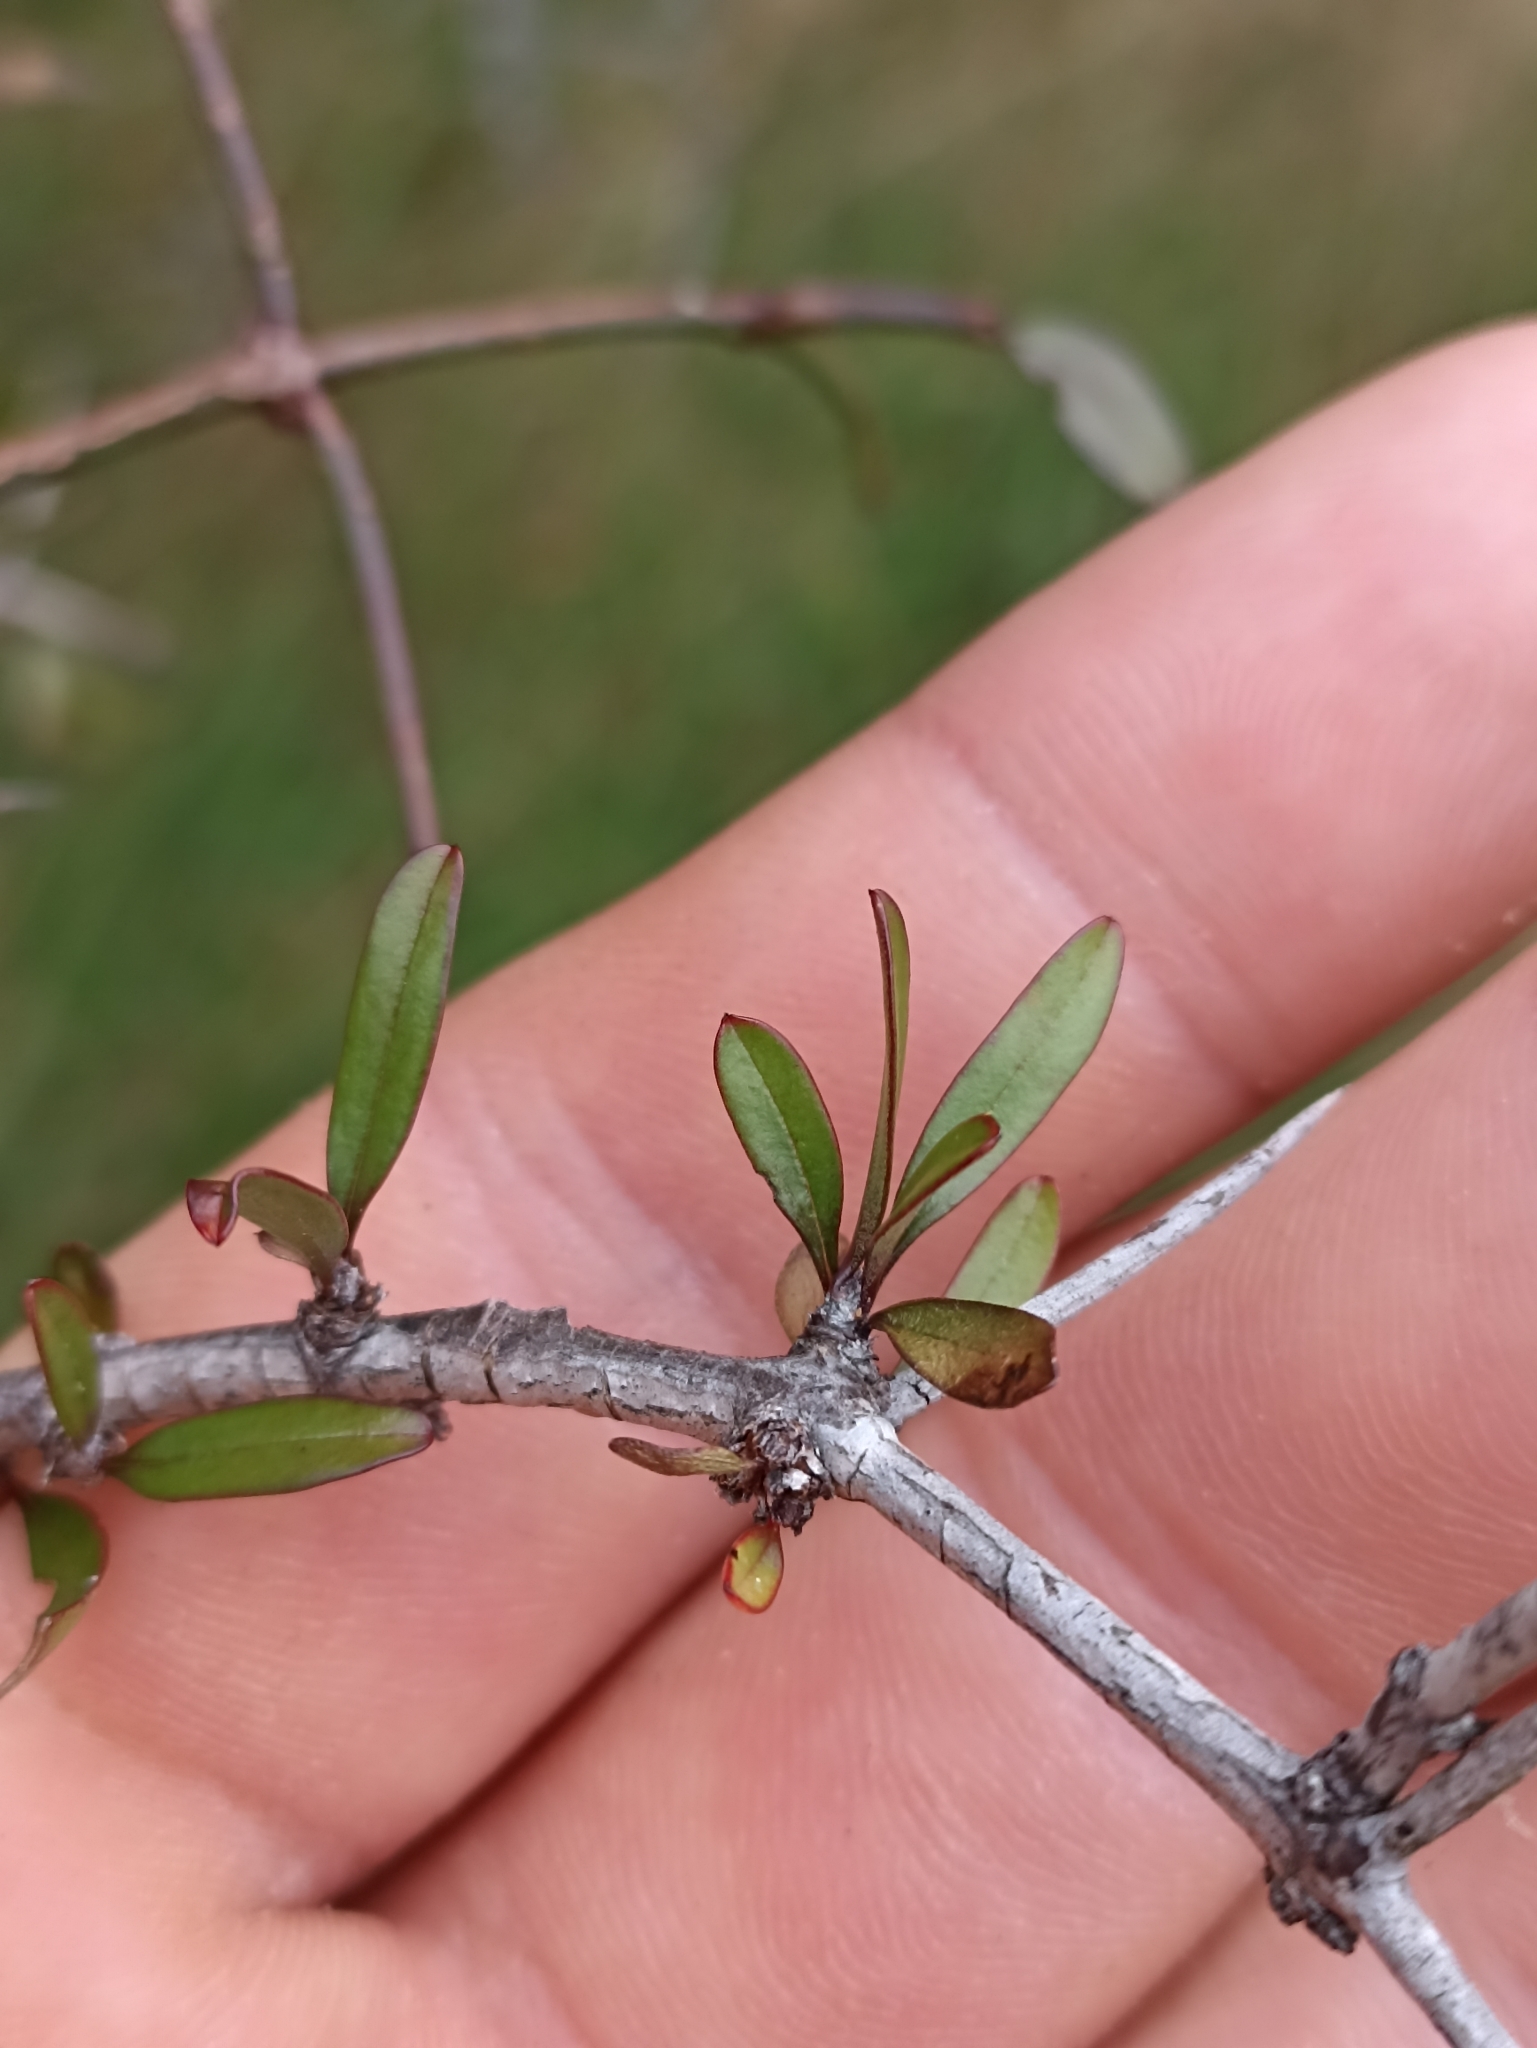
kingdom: Plantae
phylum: Tracheophyta
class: Magnoliopsida
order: Rosales
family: Rhamnaceae
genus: Discaria
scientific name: Discaria toumatou
